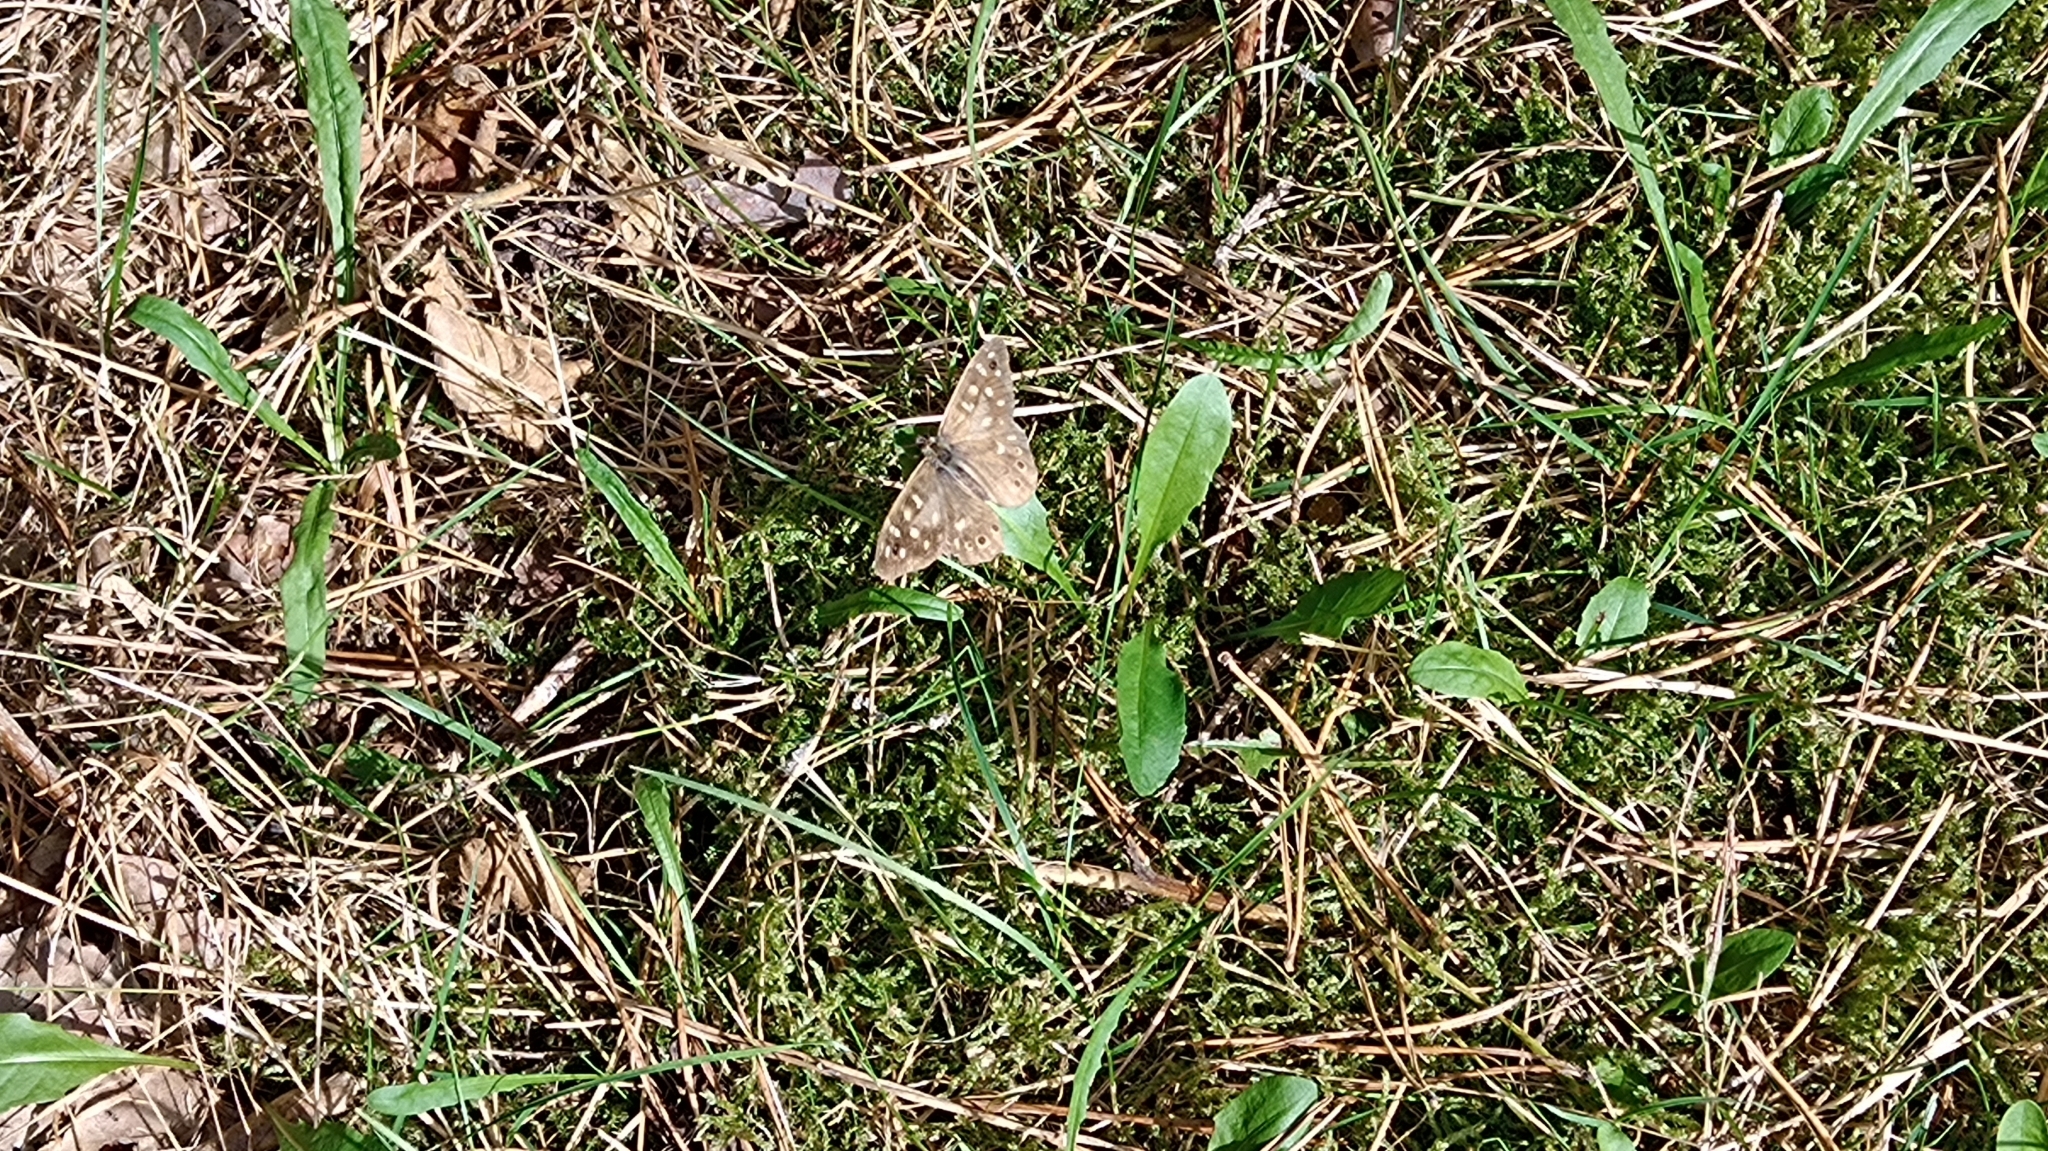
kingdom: Animalia
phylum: Arthropoda
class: Insecta
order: Lepidoptera
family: Nymphalidae
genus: Pararge
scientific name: Pararge aegeria
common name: Speckled wood
